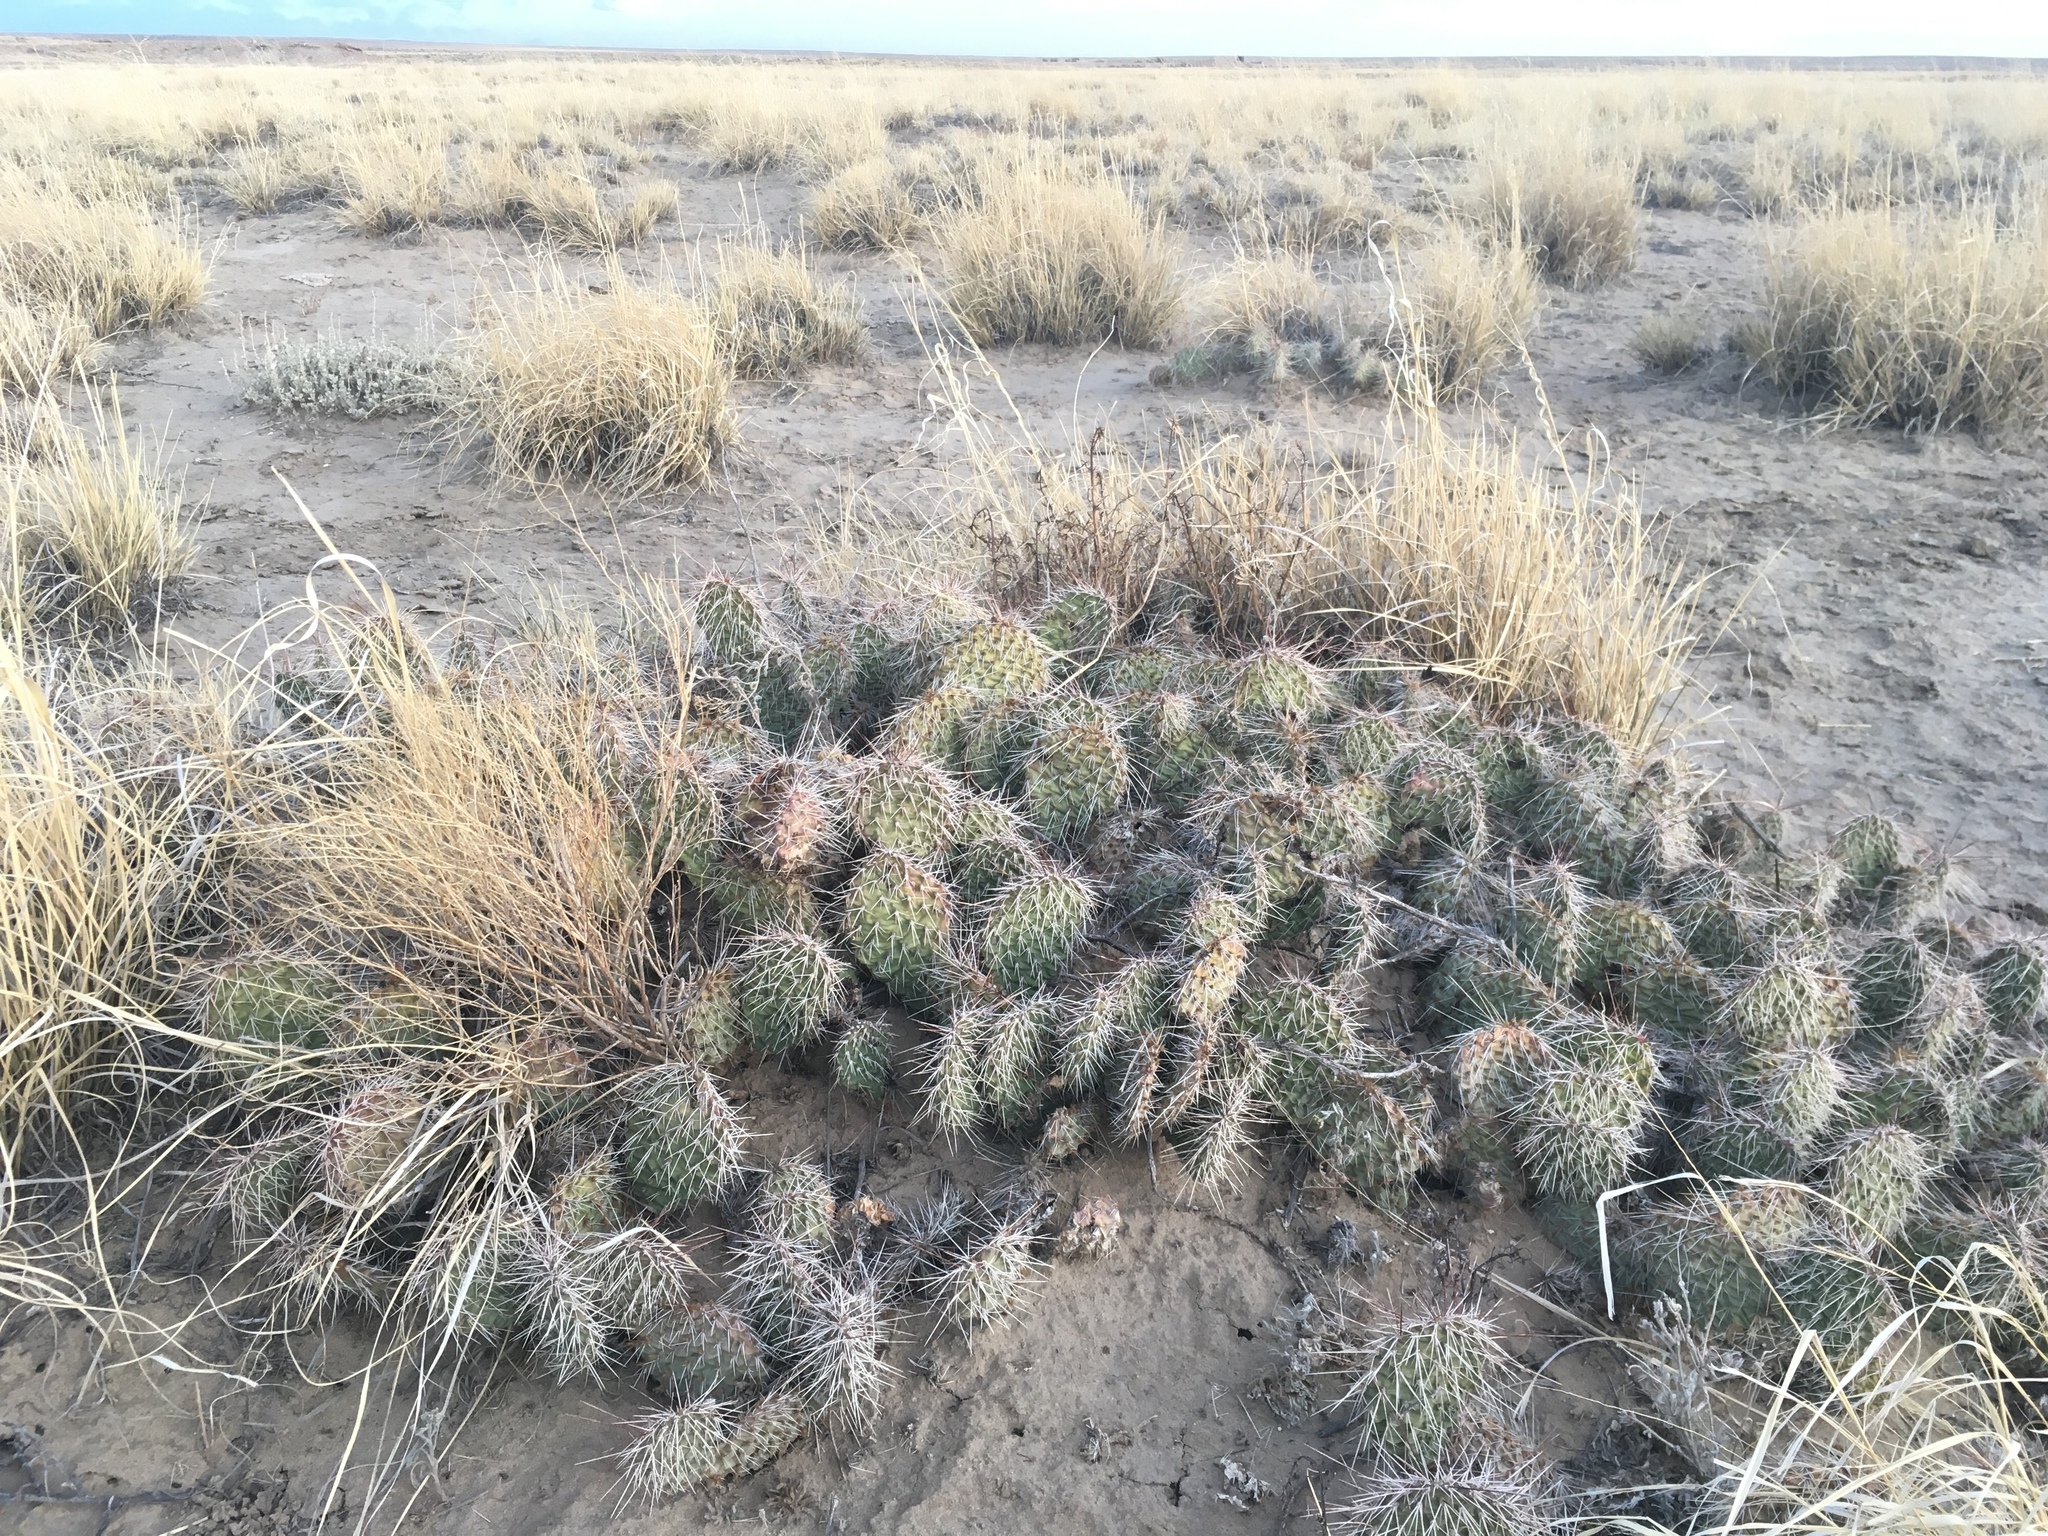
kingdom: Plantae
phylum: Tracheophyta
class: Magnoliopsida
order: Caryophyllales
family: Cactaceae
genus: Opuntia
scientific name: Opuntia polyacantha
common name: Plains prickly-pear
